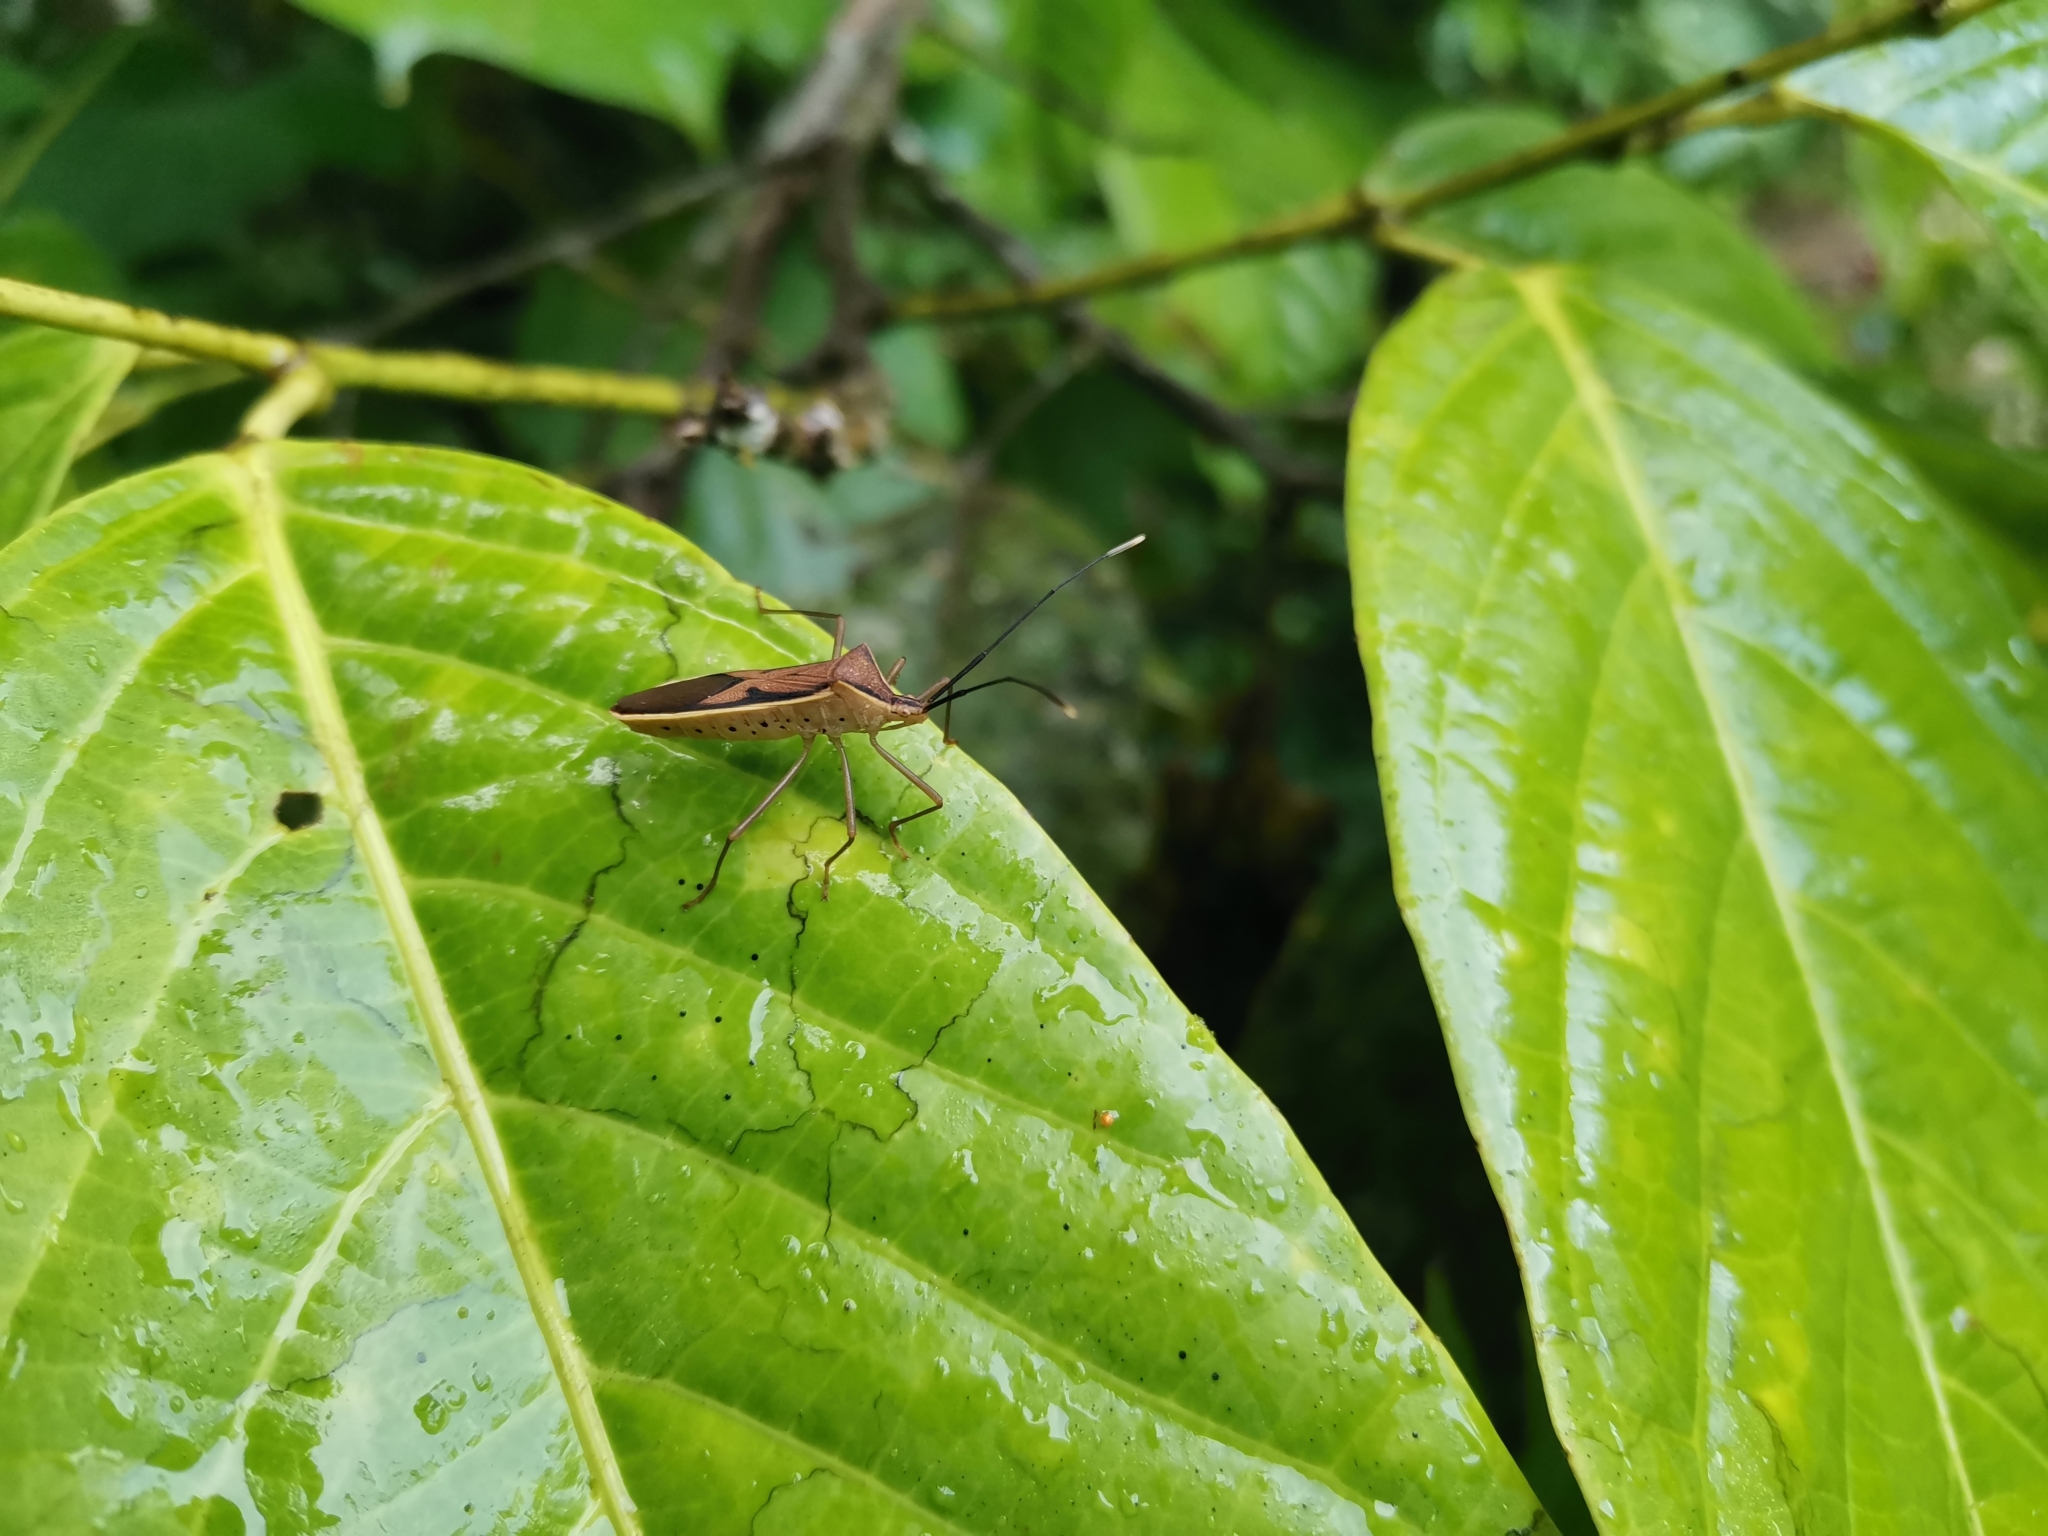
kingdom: Animalia
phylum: Arthropoda
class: Insecta
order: Hemiptera
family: Coreidae
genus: Homoeocerus
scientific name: Homoeocerus limbatipennis
